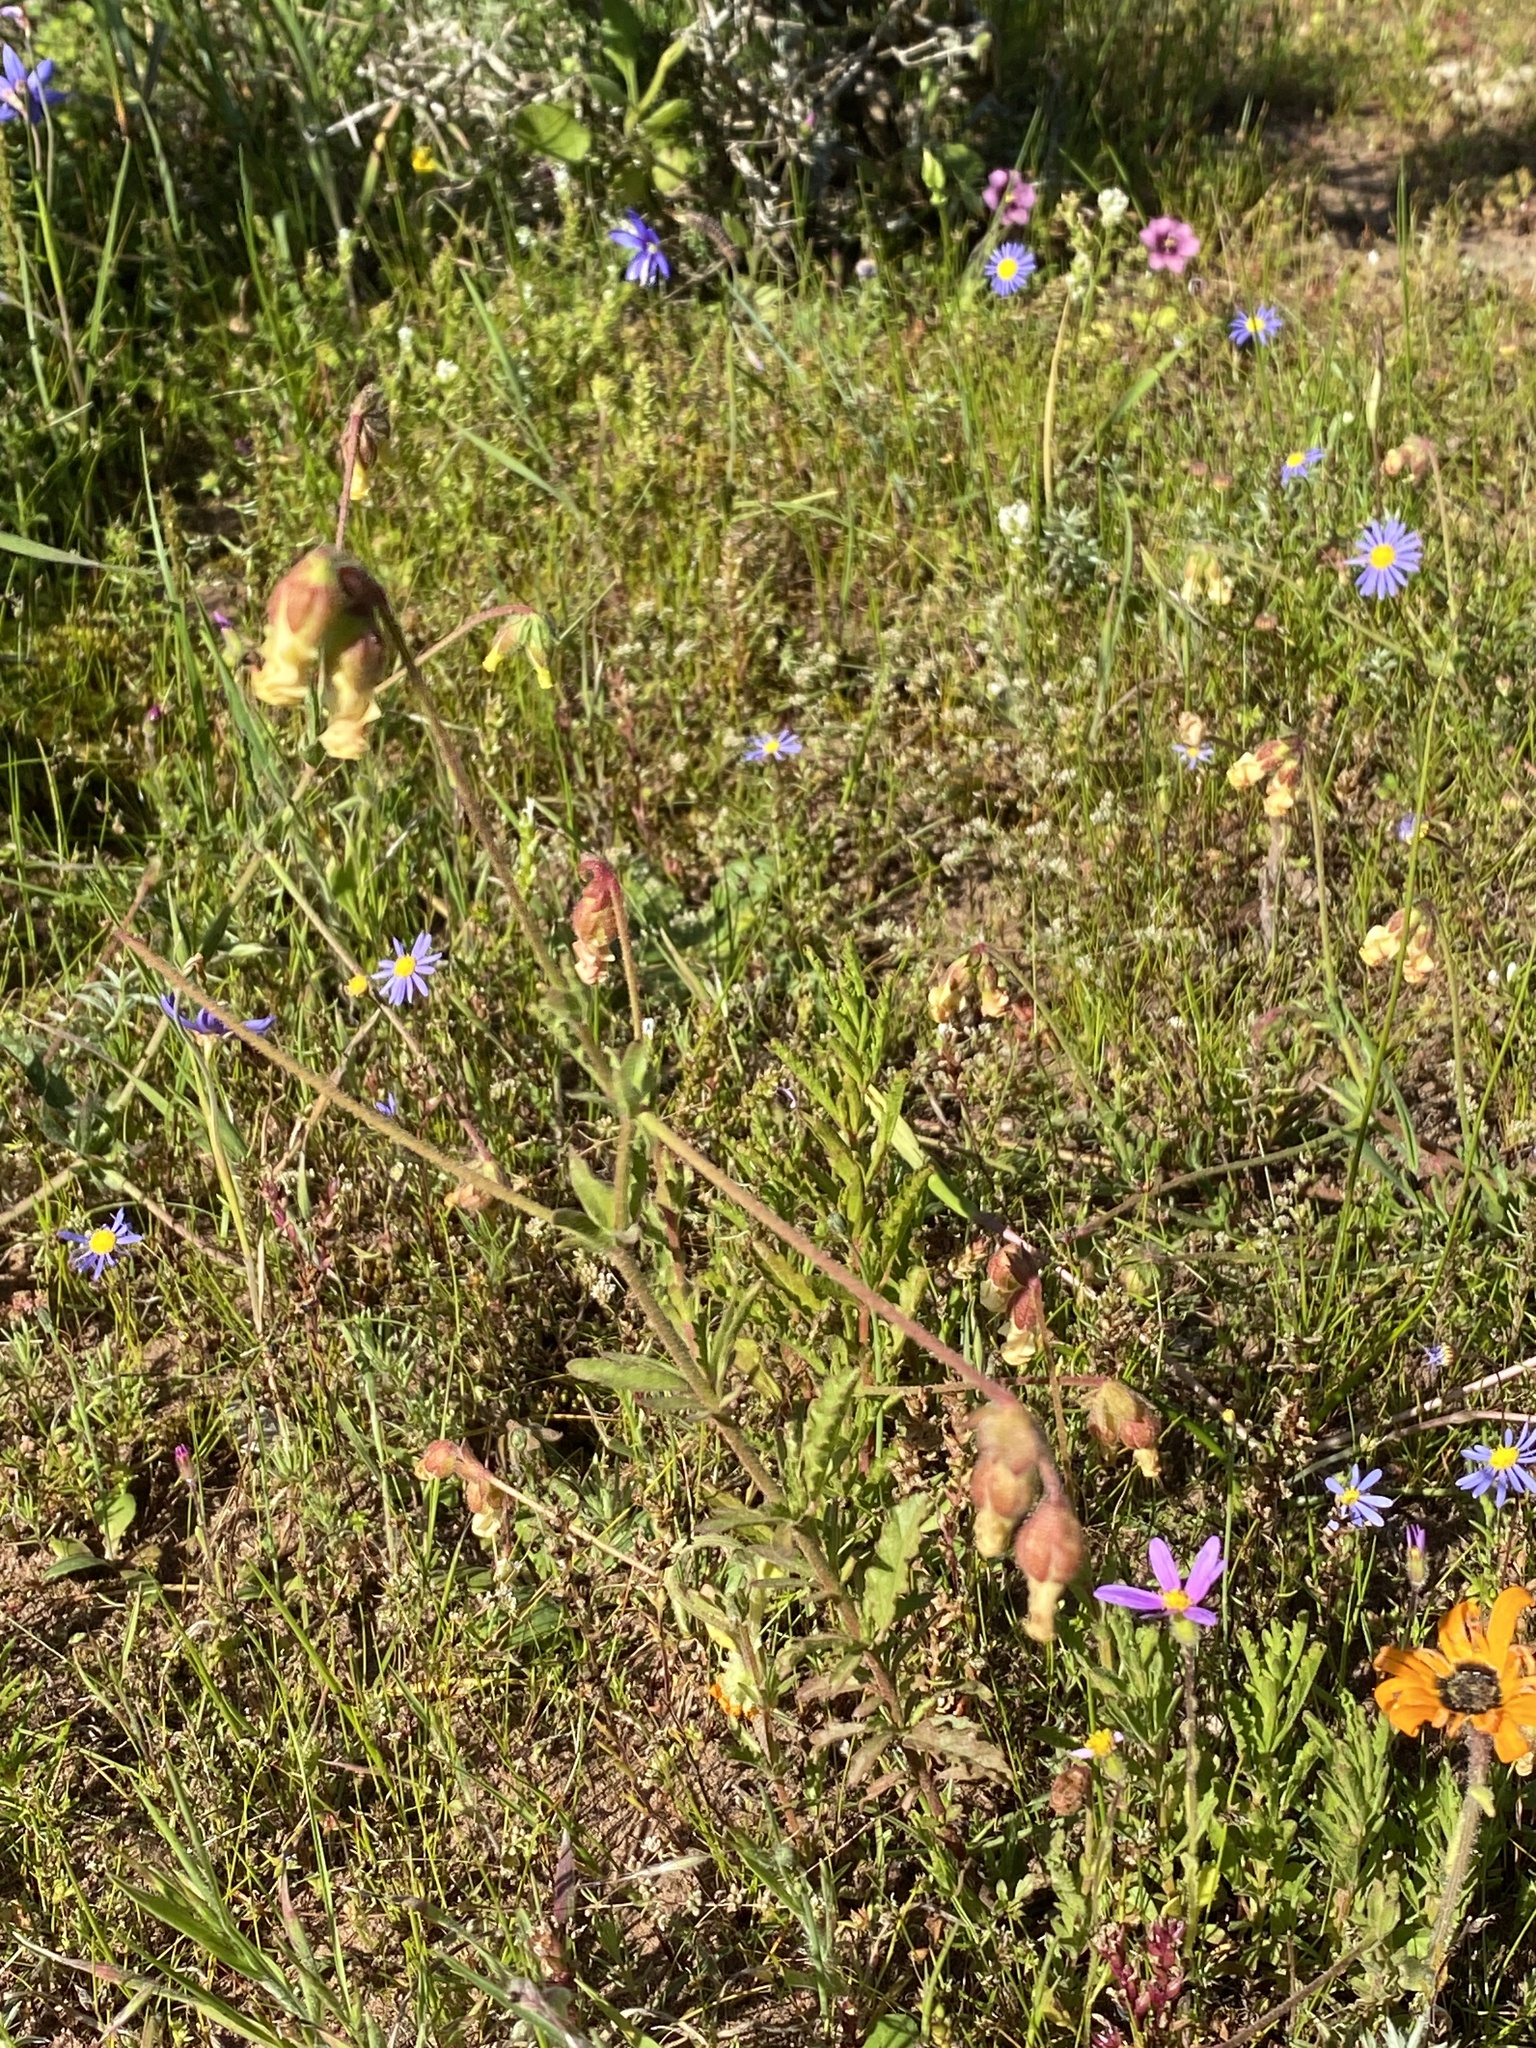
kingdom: Plantae
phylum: Tracheophyta
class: Magnoliopsida
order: Malvales
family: Malvaceae
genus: Hermannia
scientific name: Hermannia litoralis
